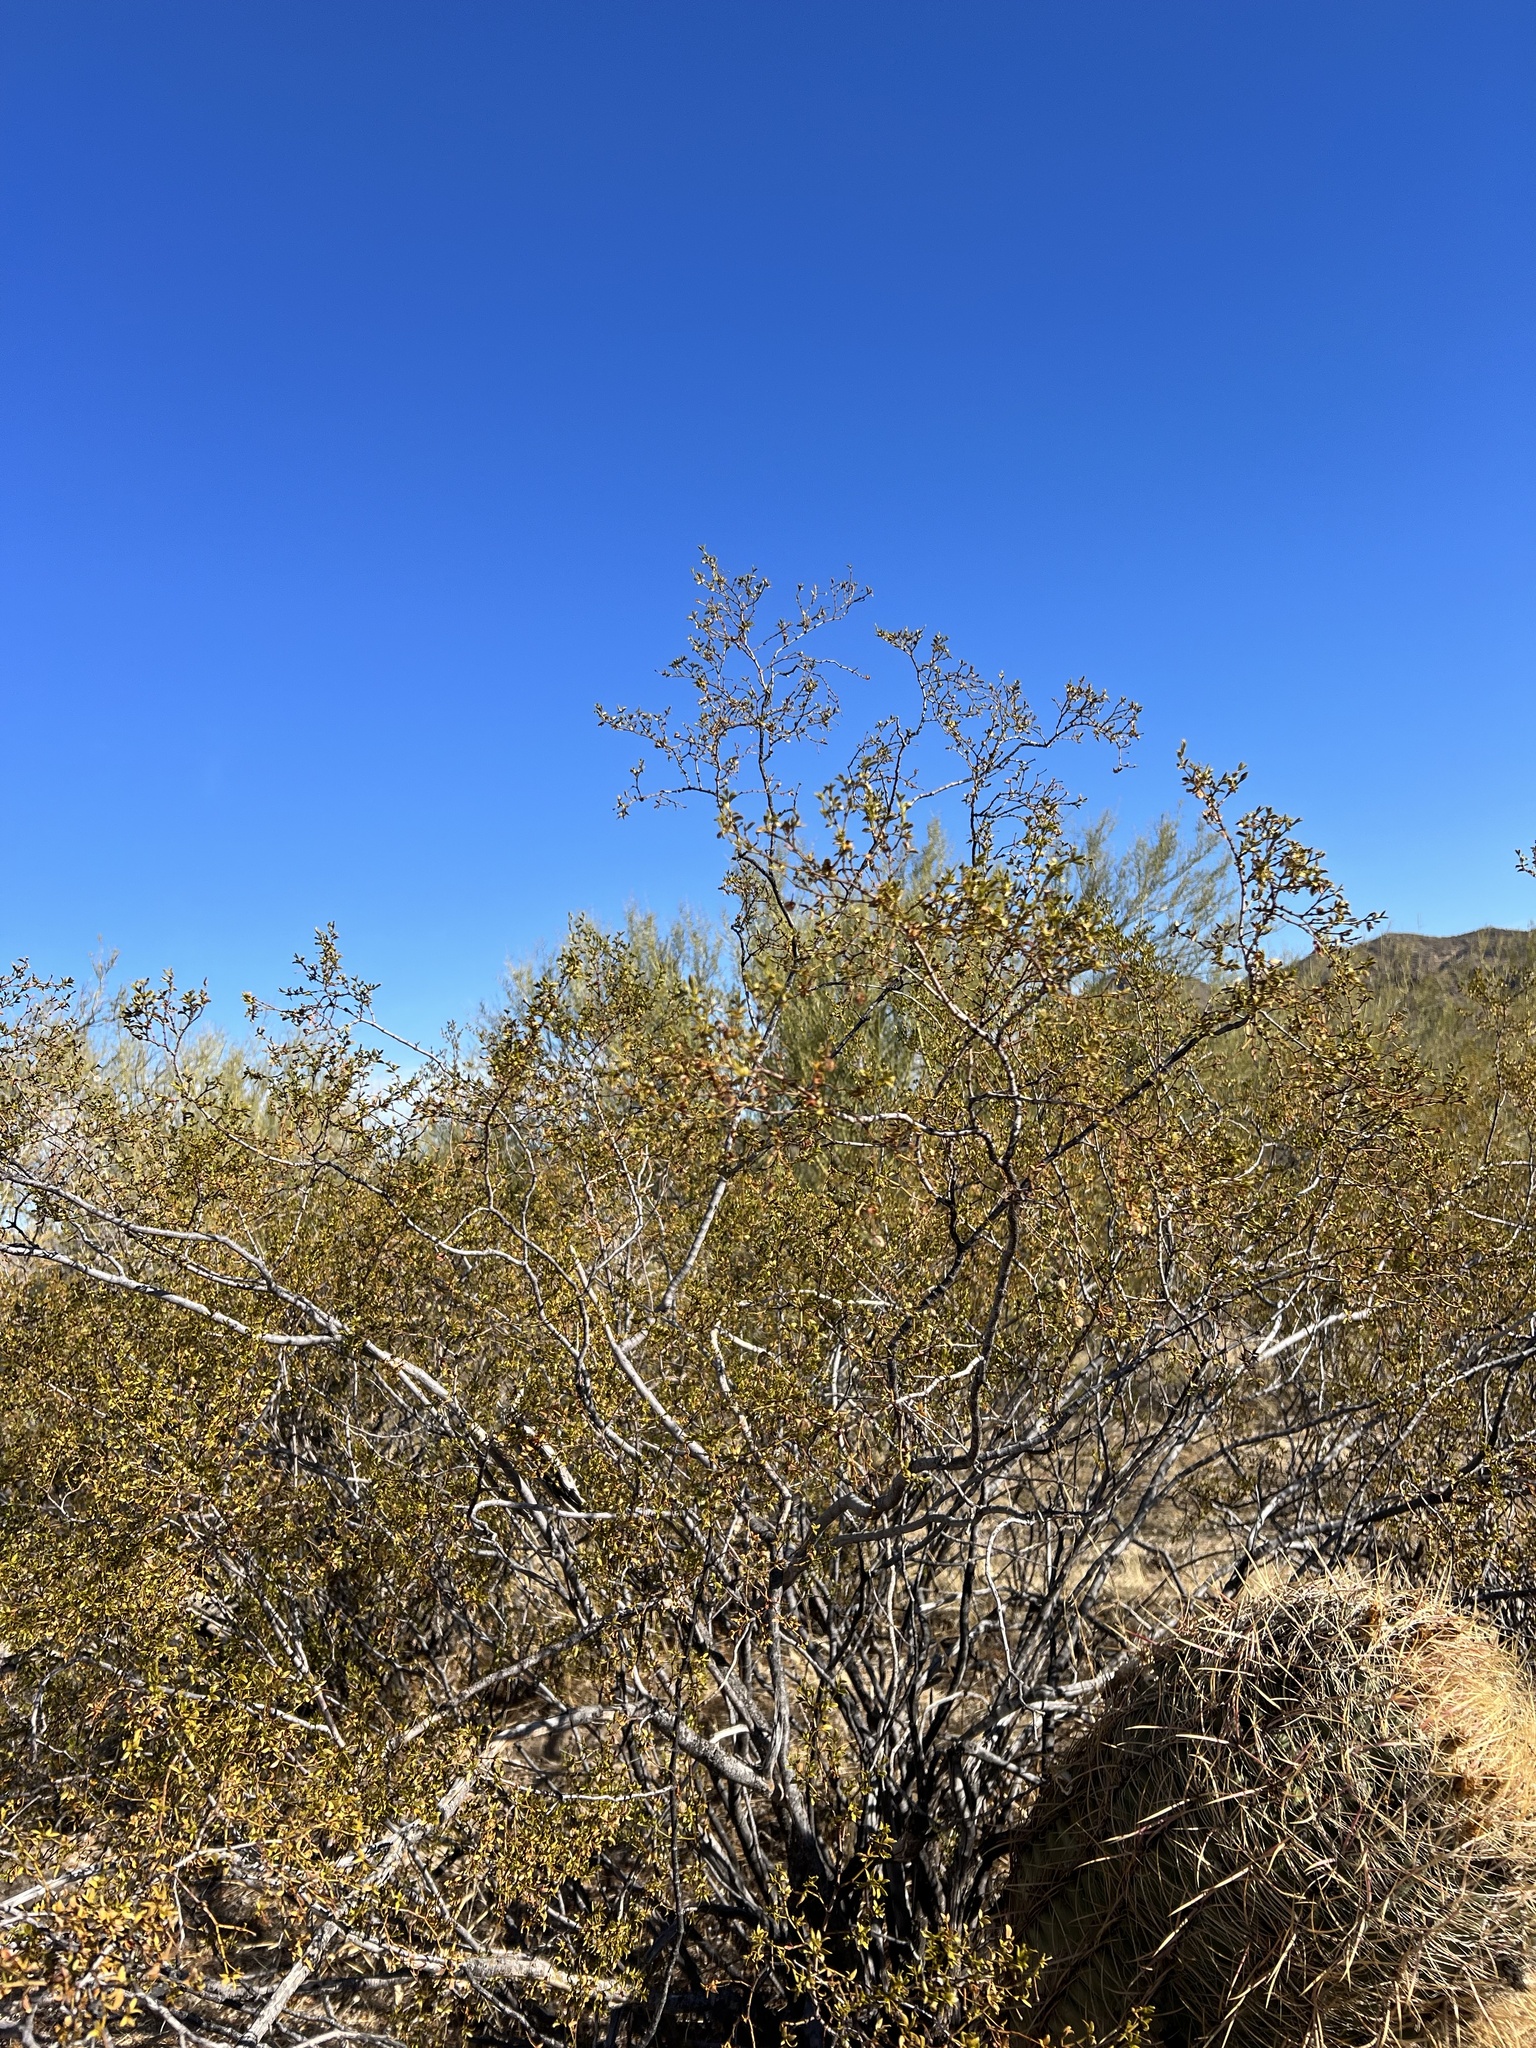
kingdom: Plantae
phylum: Tracheophyta
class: Magnoliopsida
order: Zygophyllales
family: Zygophyllaceae
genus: Larrea
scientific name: Larrea tridentata
